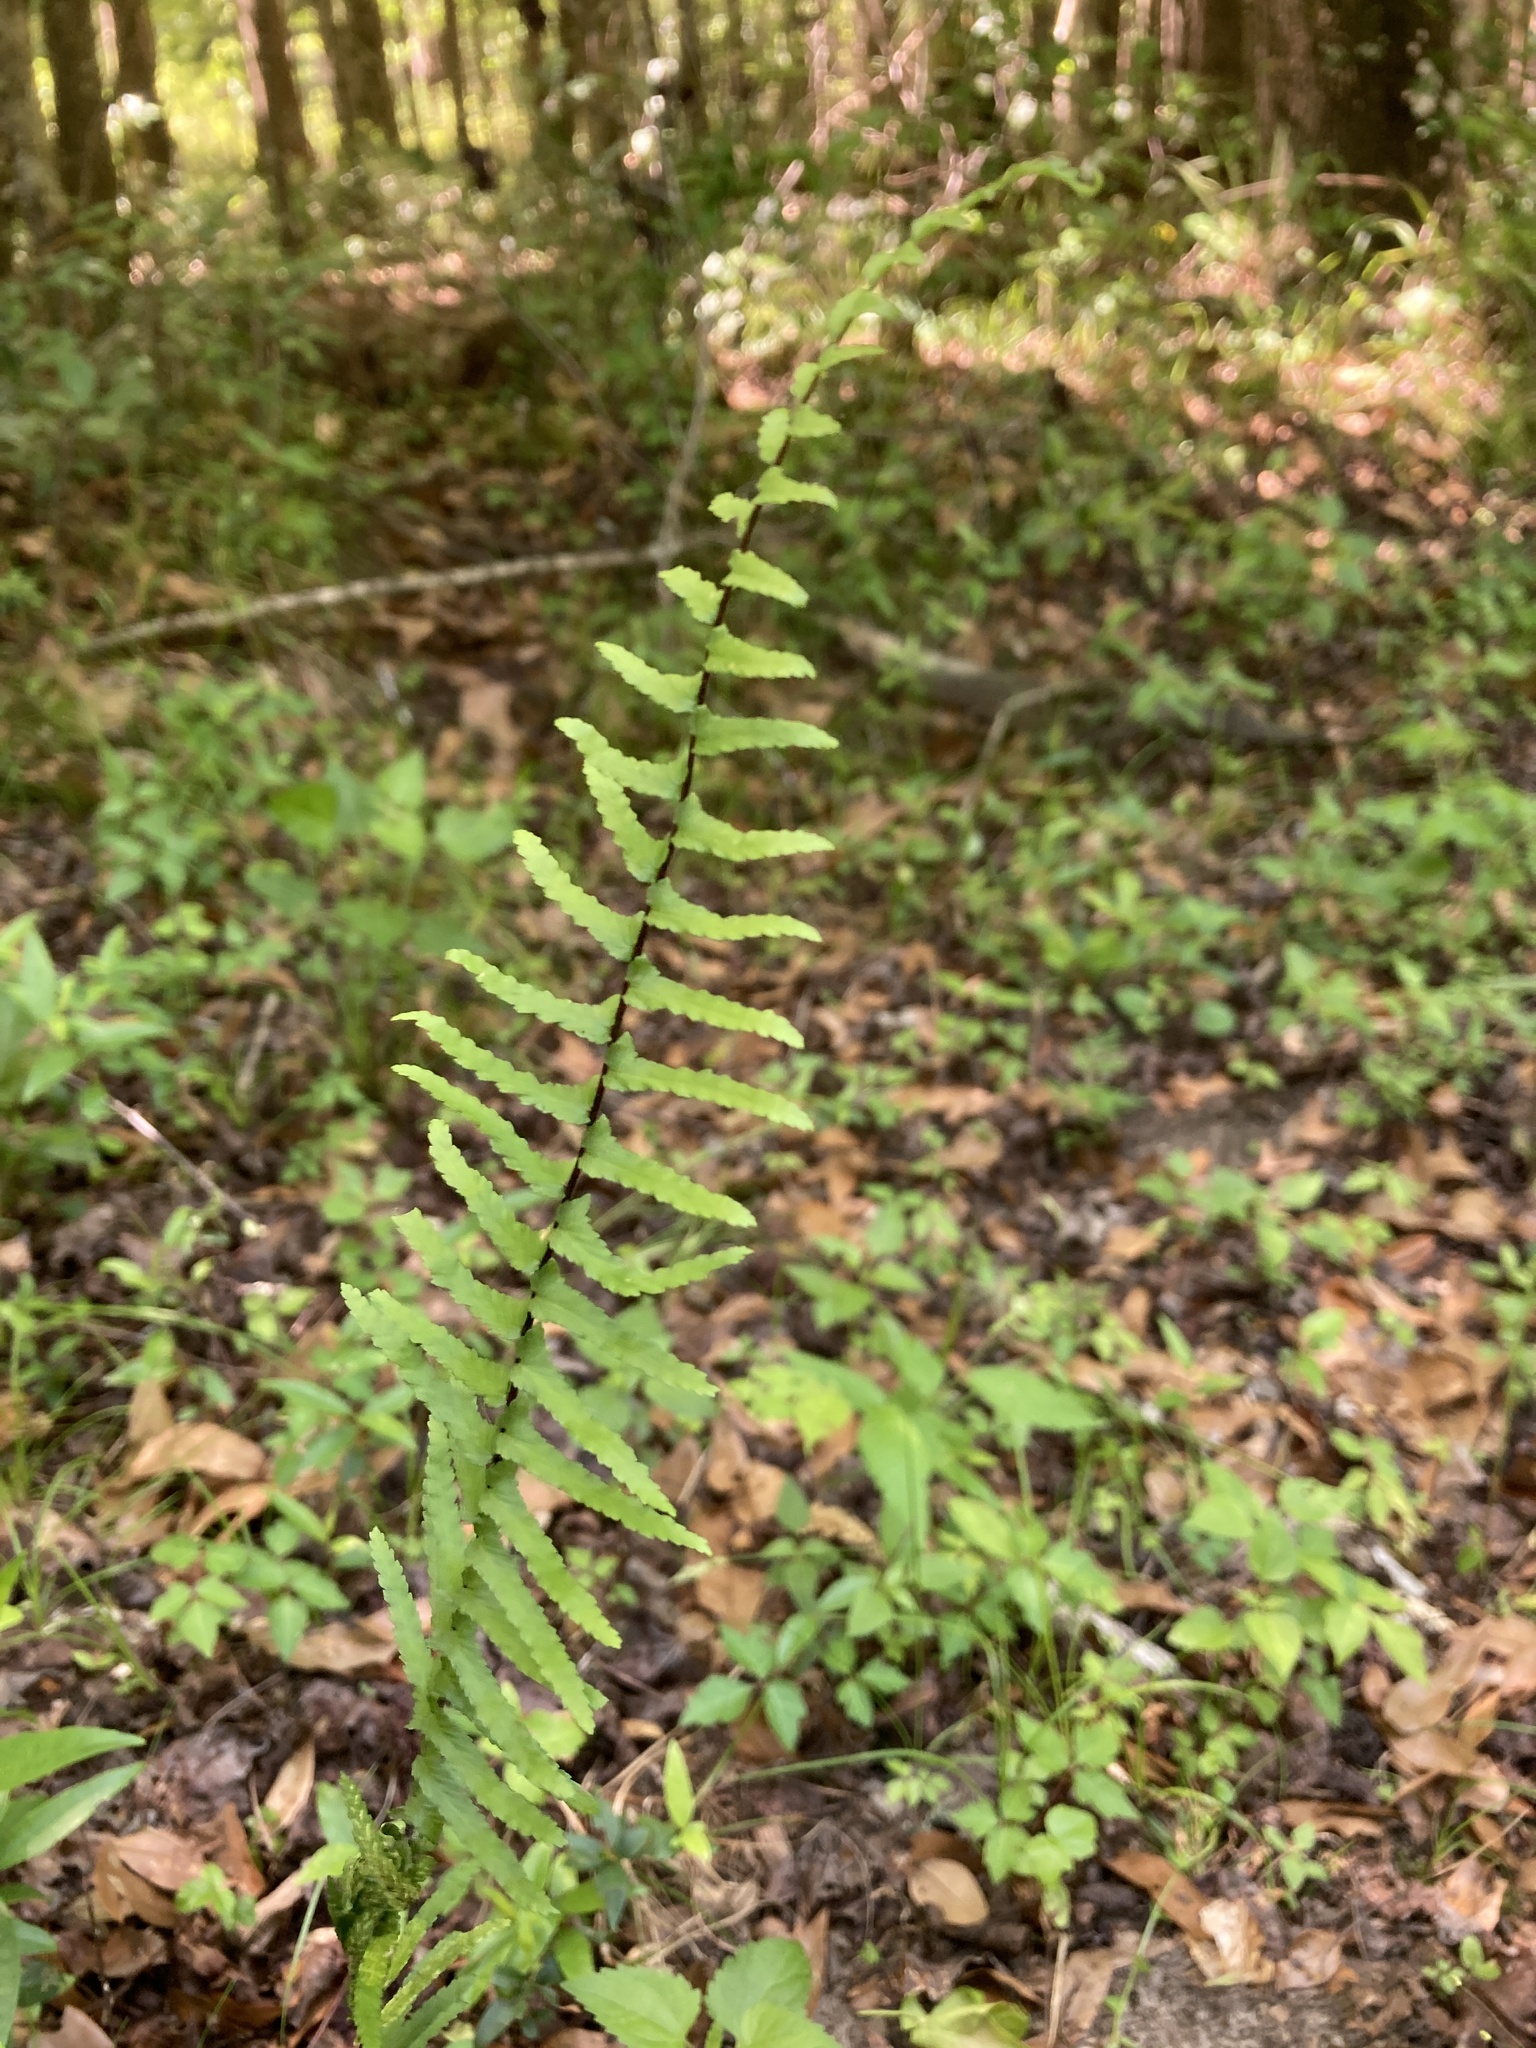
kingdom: Plantae
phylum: Tracheophyta
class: Polypodiopsida
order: Polypodiales
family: Aspleniaceae
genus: Asplenium
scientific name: Asplenium platyneuron
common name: Ebony spleenwort
